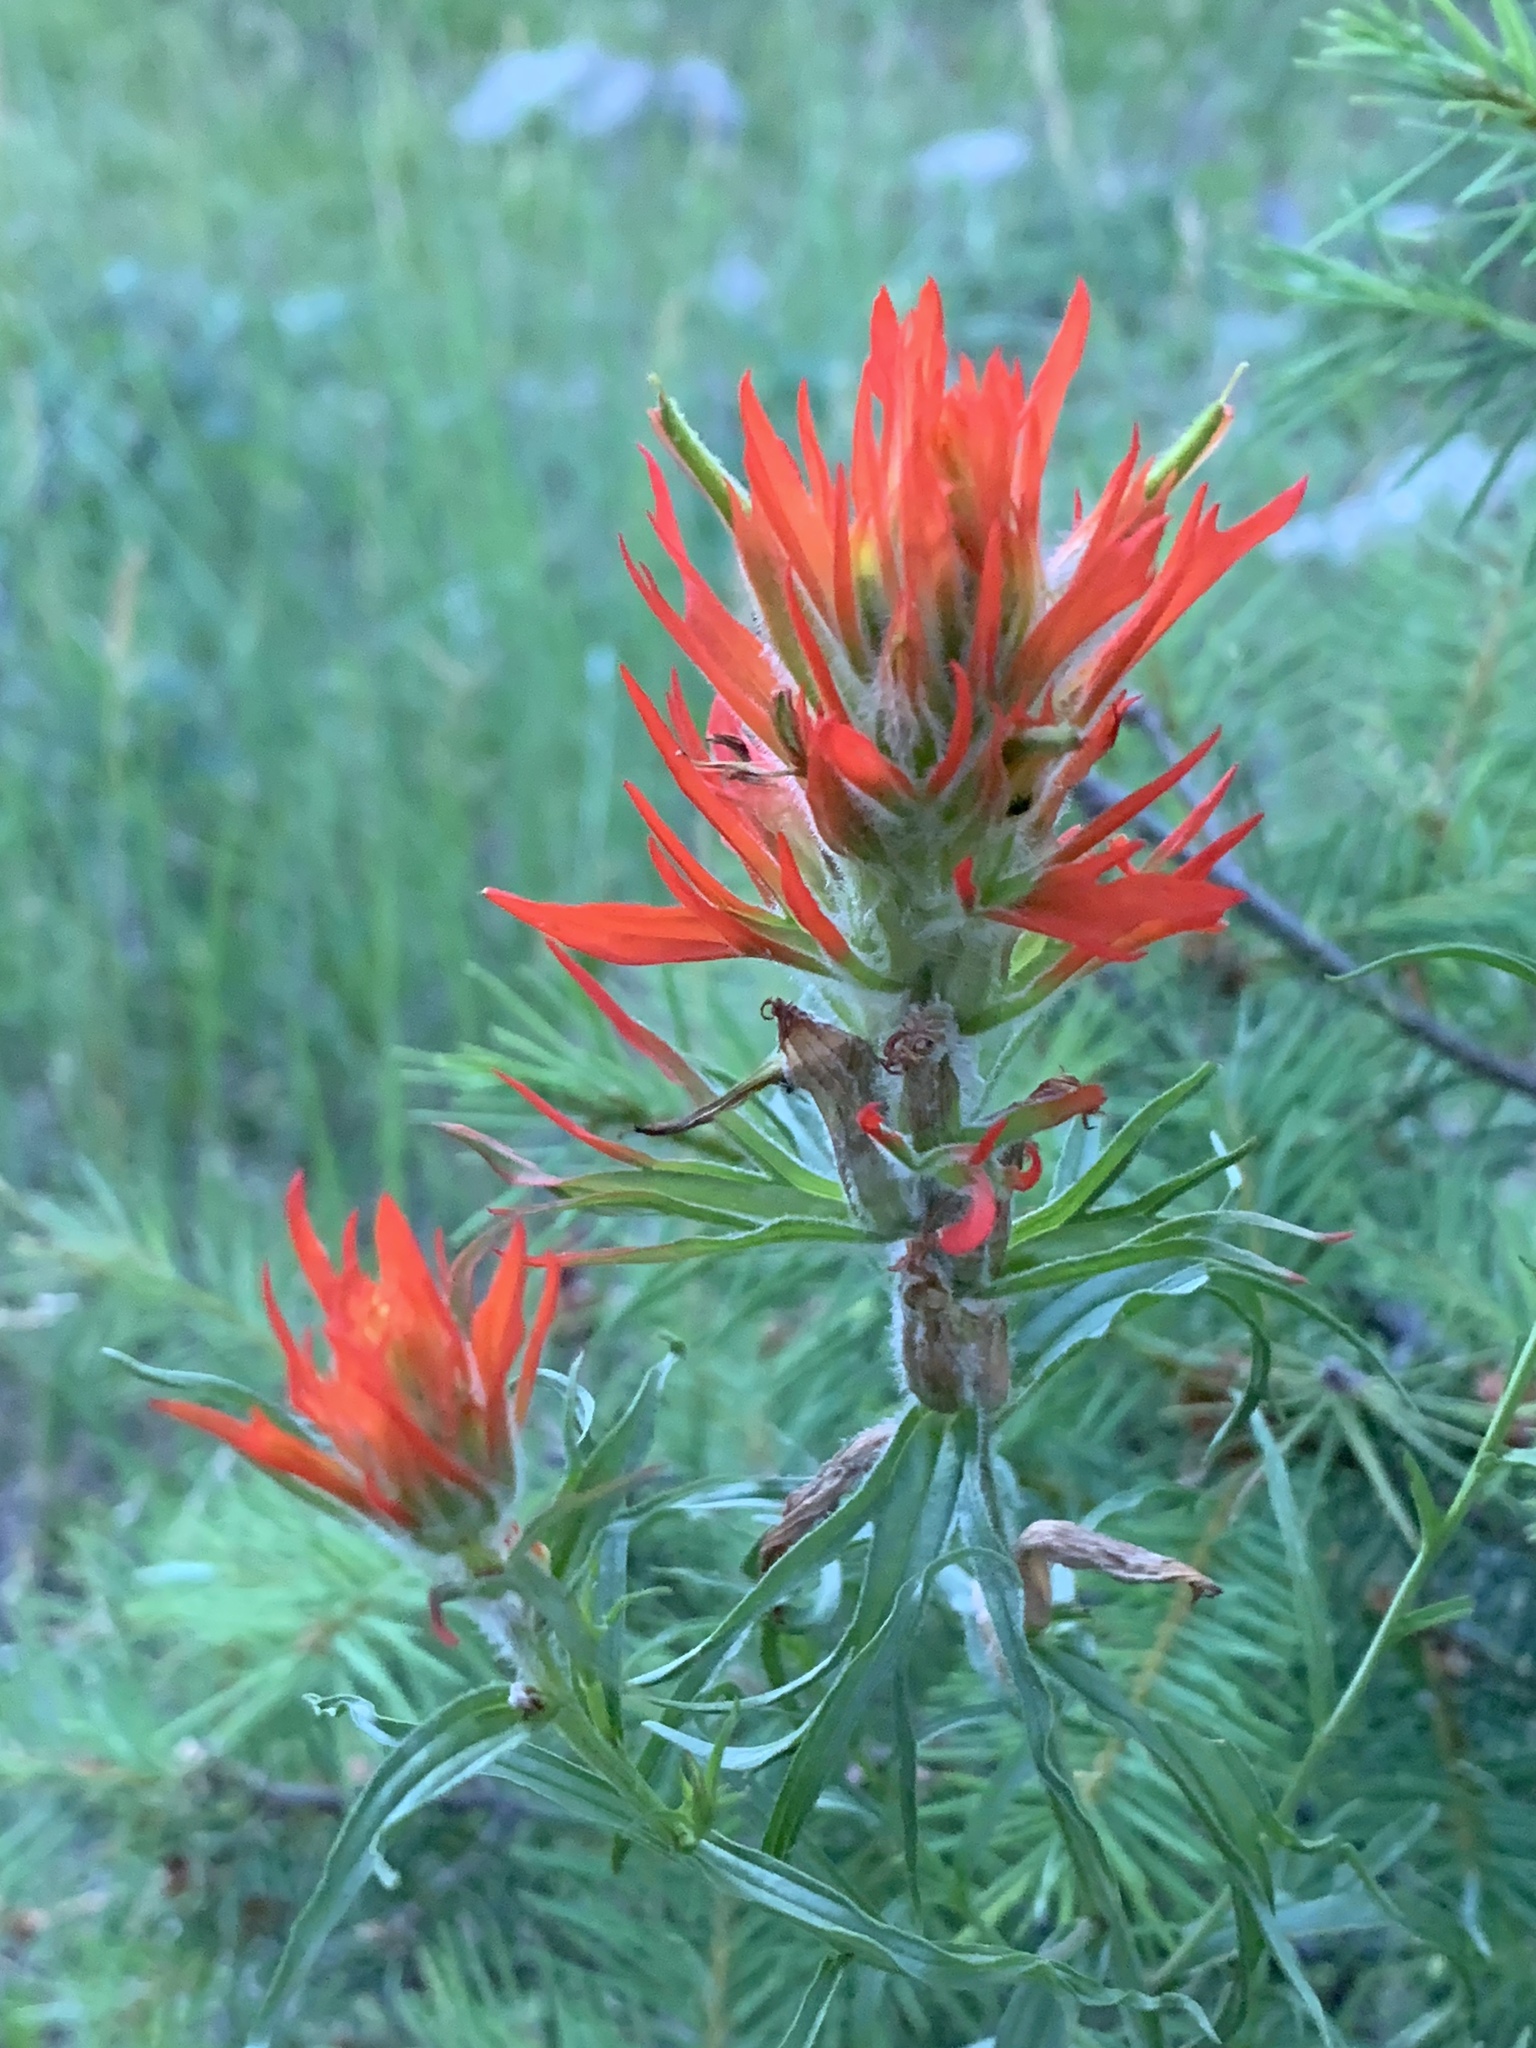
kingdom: Plantae
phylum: Tracheophyta
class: Magnoliopsida
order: Lamiales
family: Orobanchaceae
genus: Castilleja
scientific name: Castilleja wootonii
